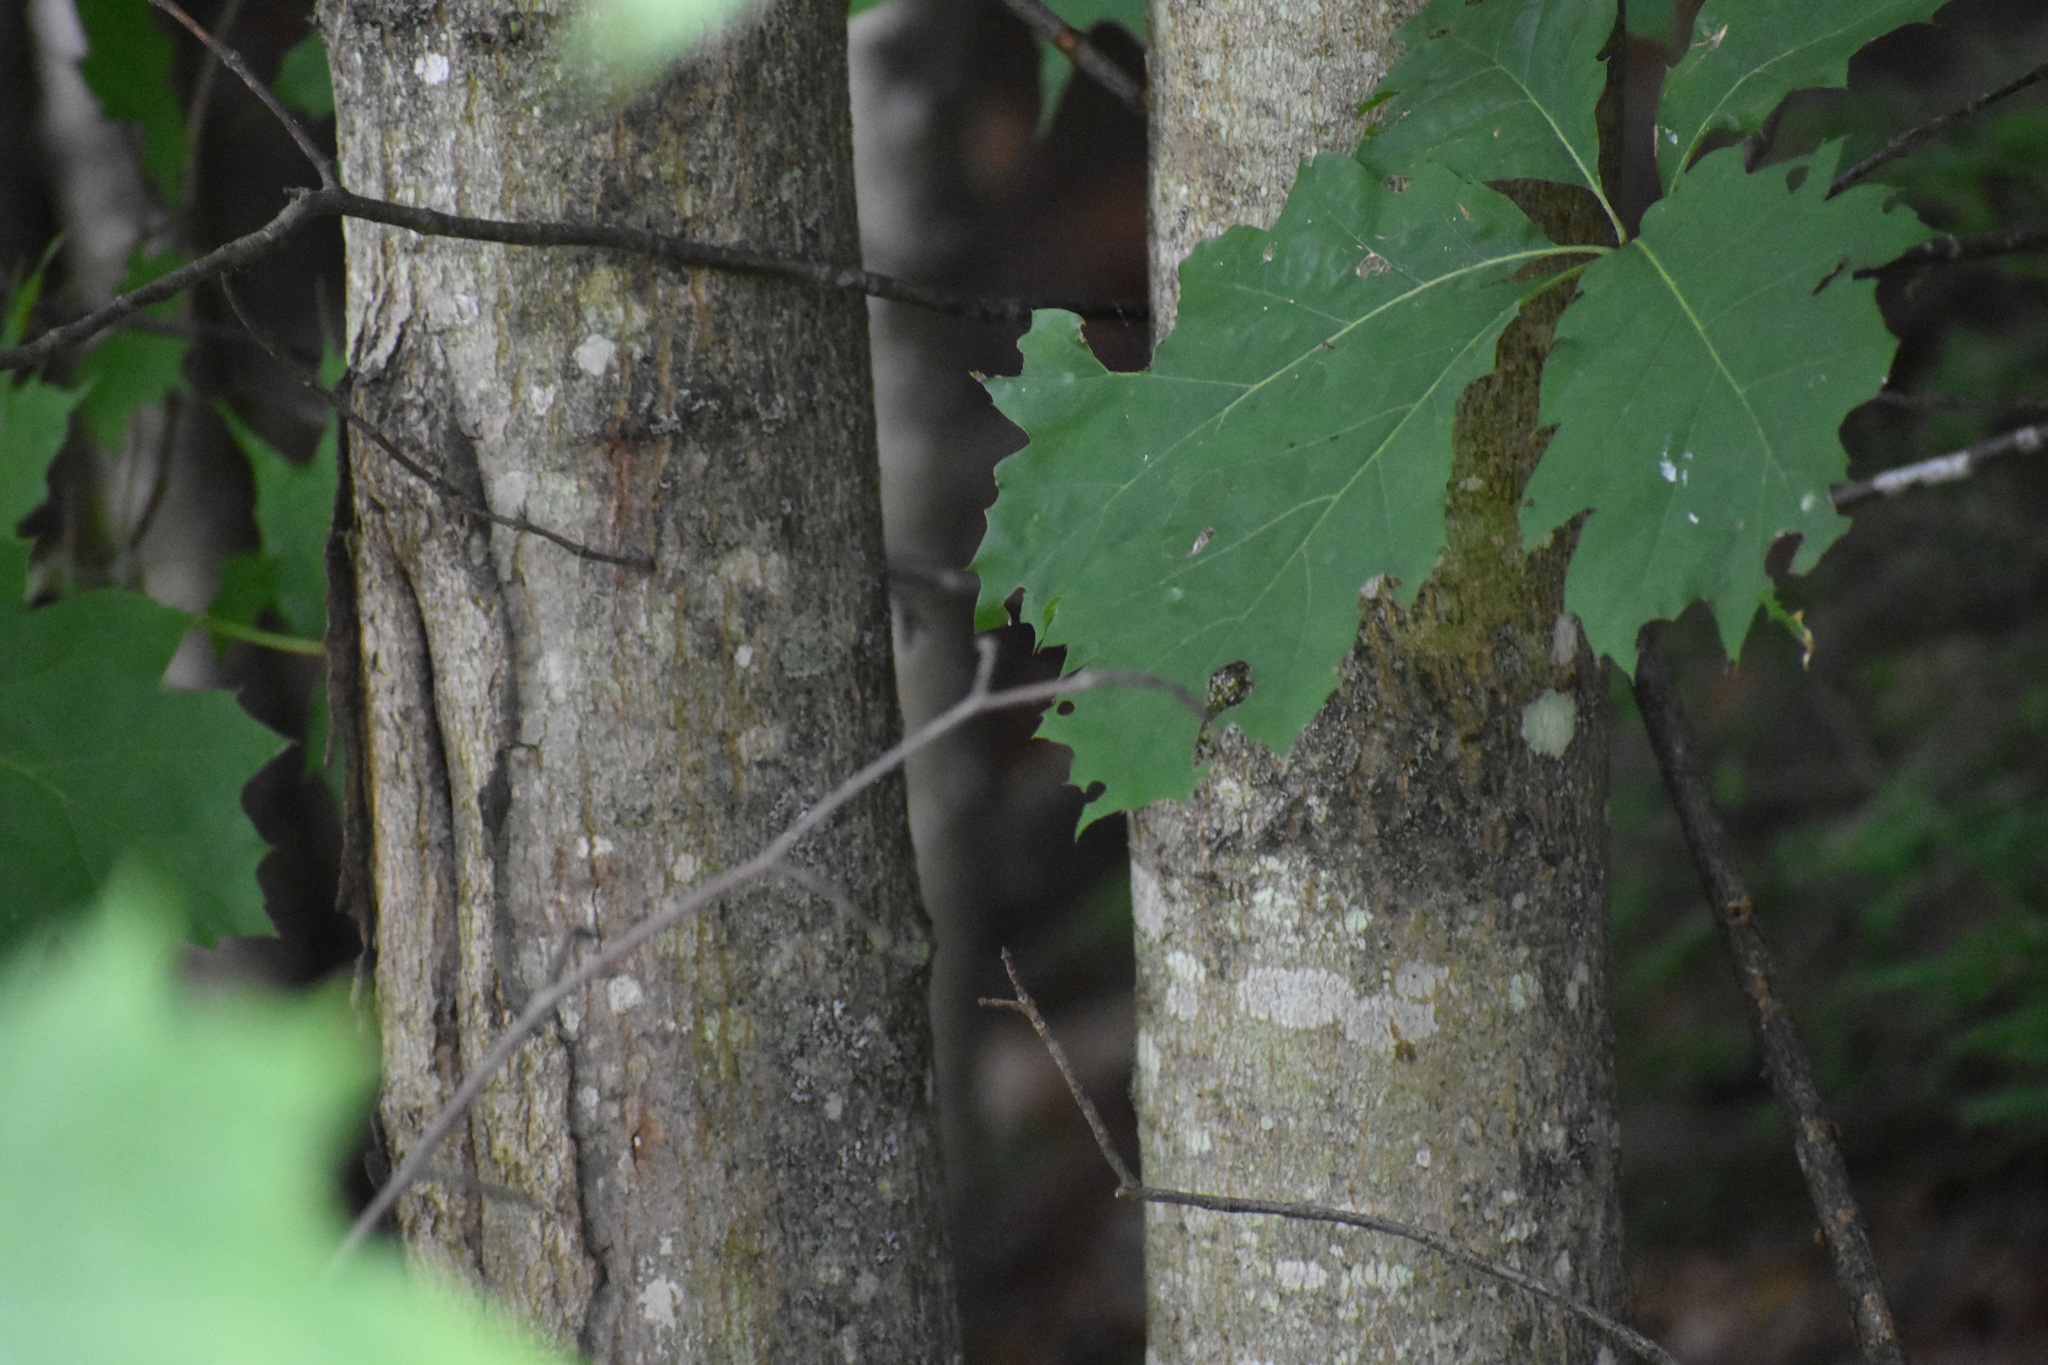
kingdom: Plantae
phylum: Tracheophyta
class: Magnoliopsida
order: Sapindales
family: Sapindaceae
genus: Acer
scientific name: Acer saccharum
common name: Sugar maple
